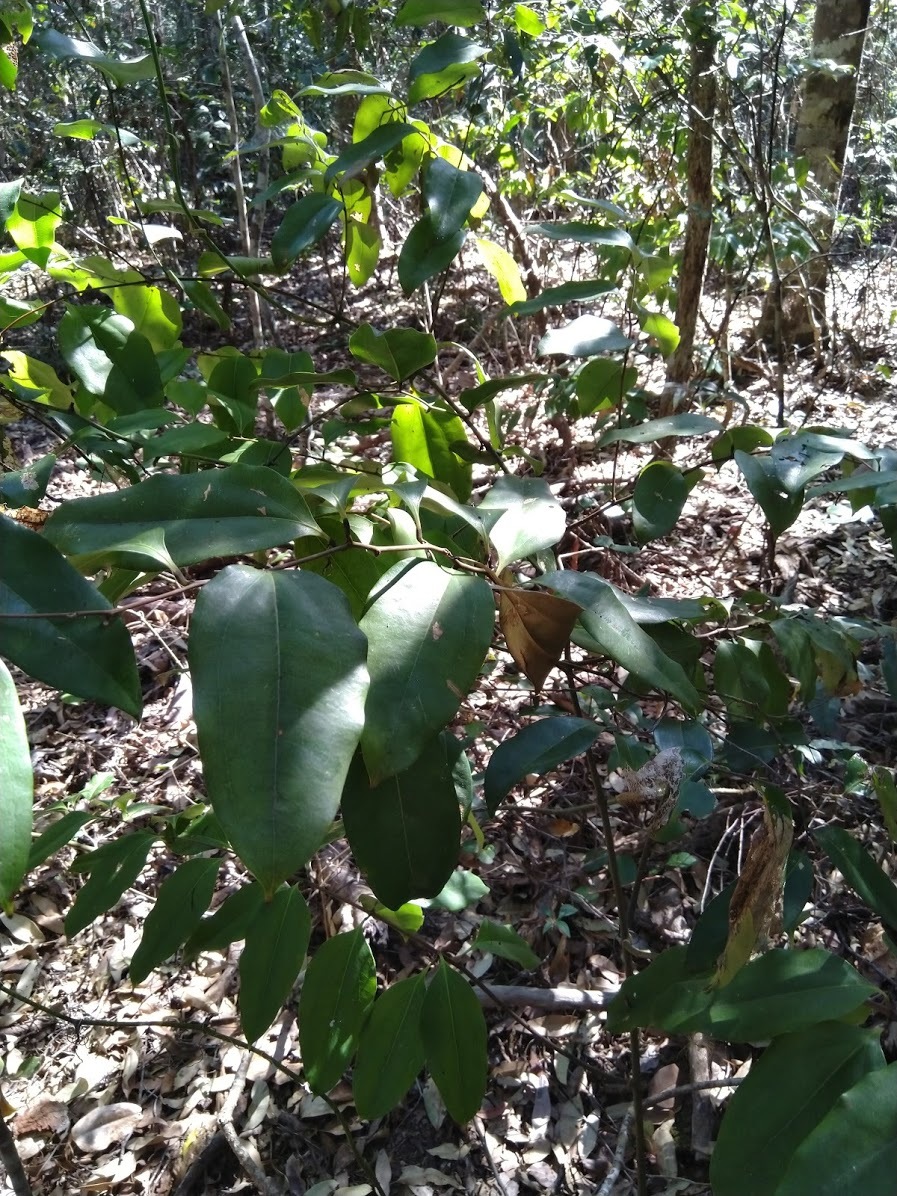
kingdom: Plantae
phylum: Tracheophyta
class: Liliopsida
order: Liliales
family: Ripogonaceae
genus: Ripogonum
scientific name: Ripogonum album
